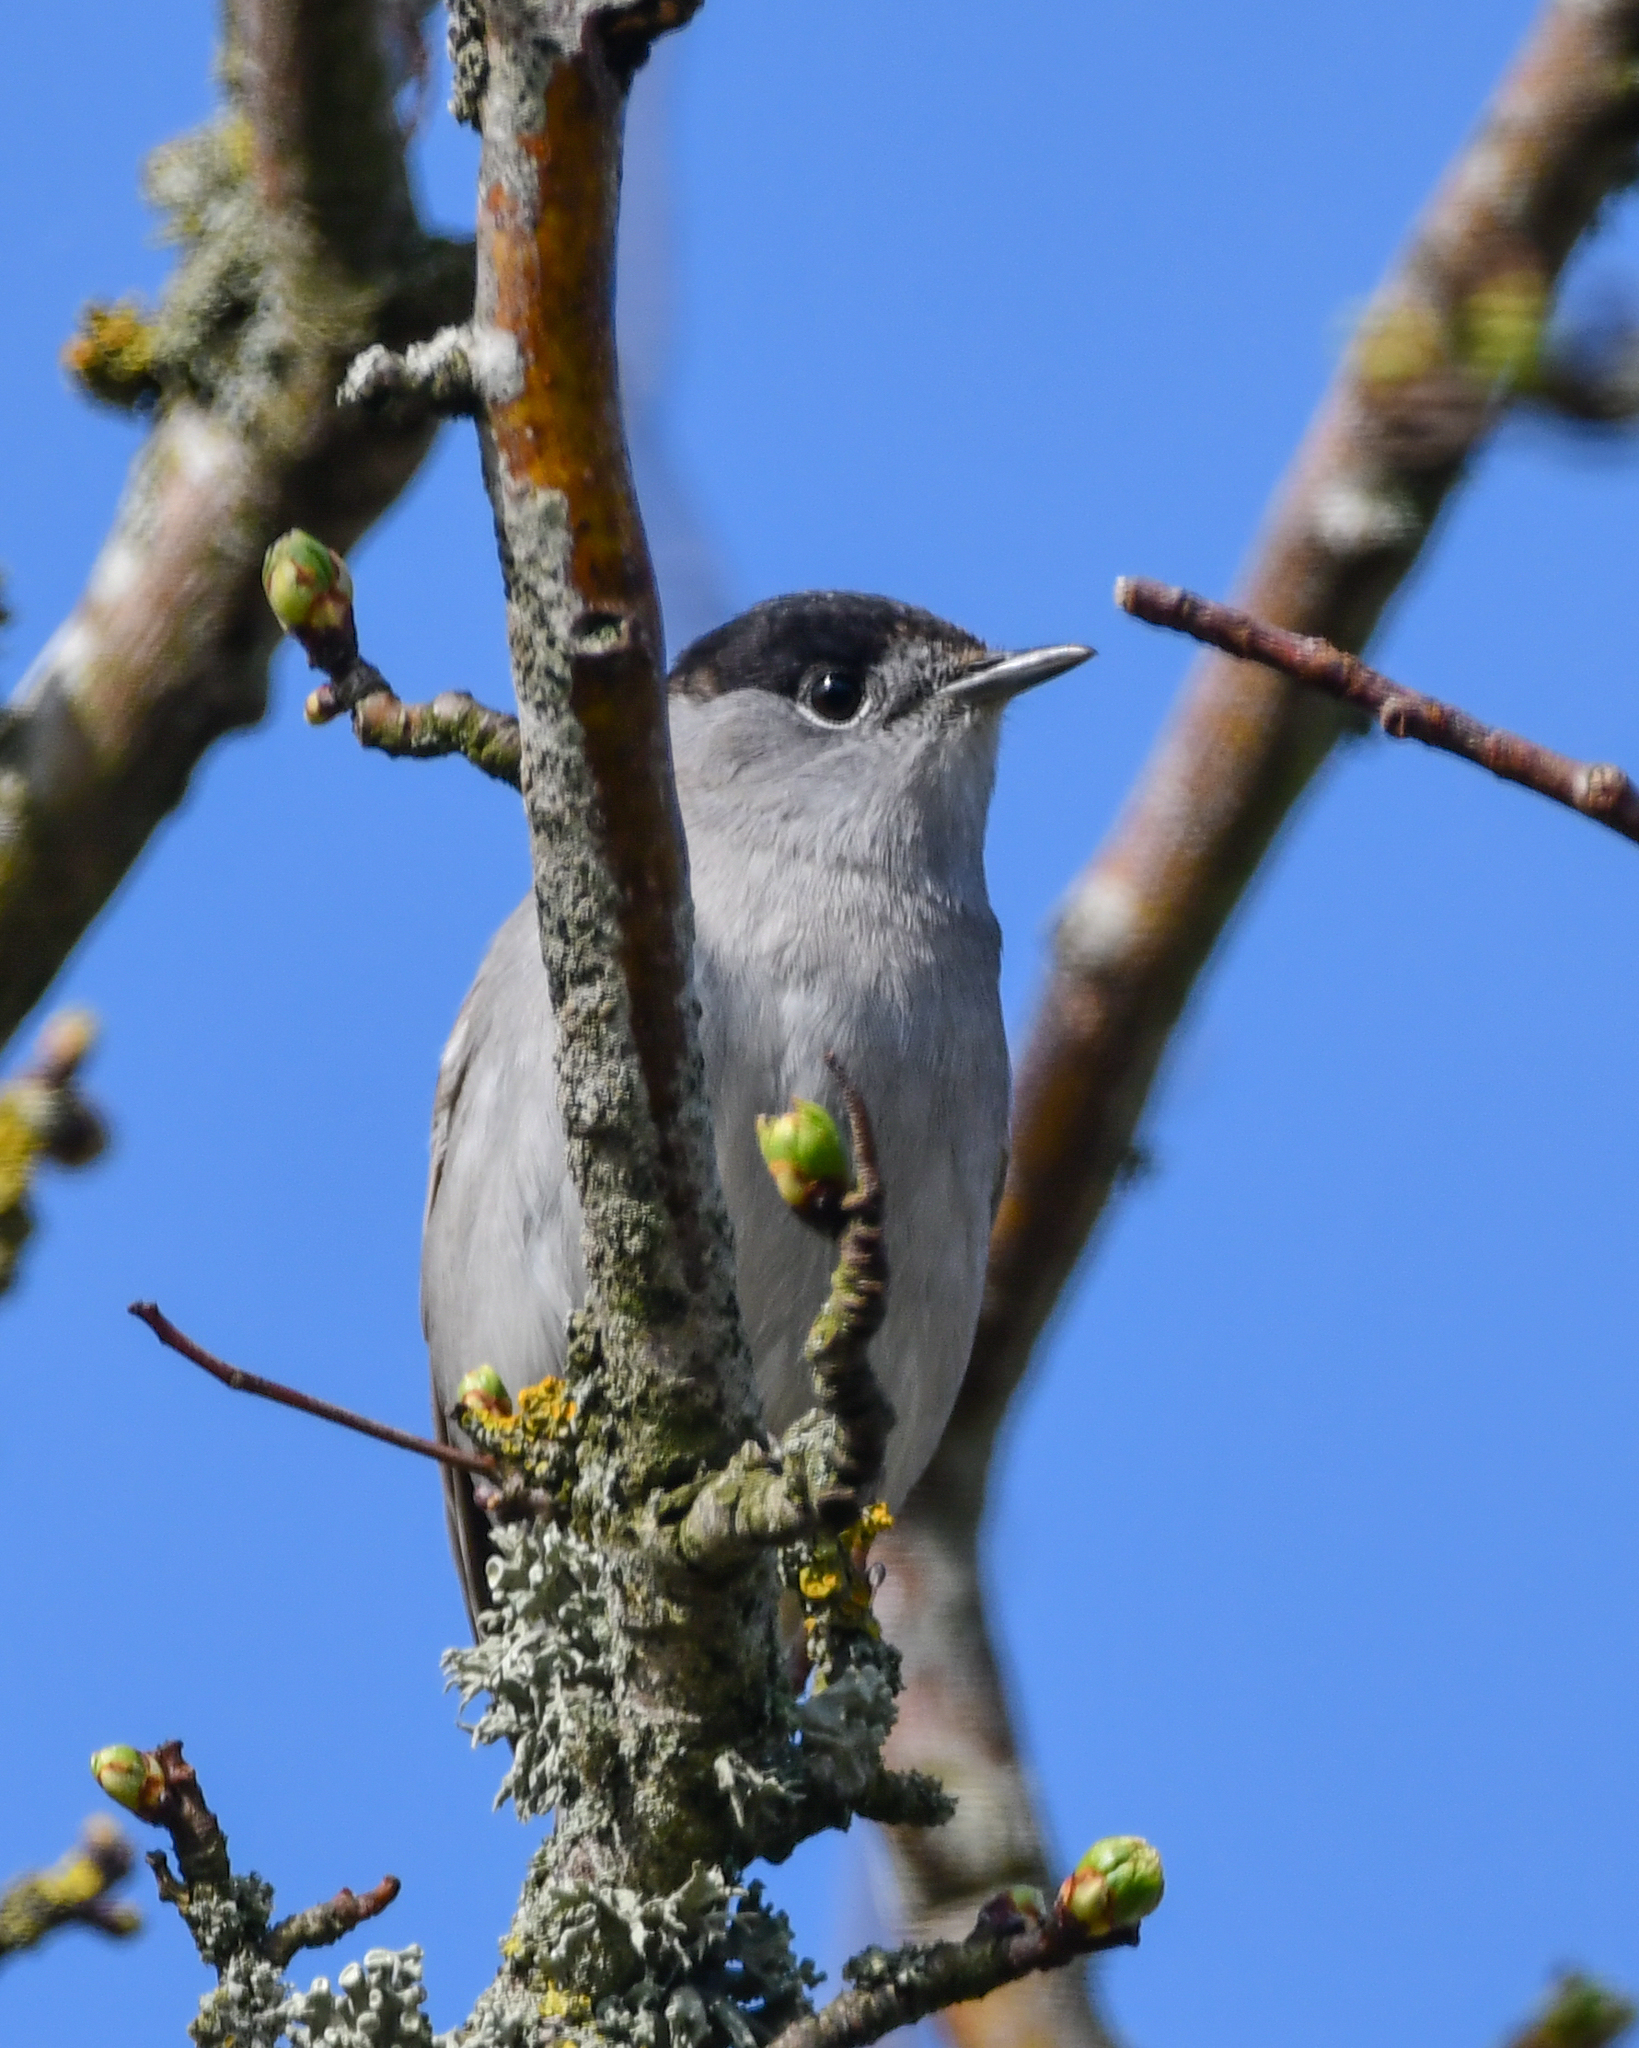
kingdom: Animalia
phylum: Chordata
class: Aves
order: Passeriformes
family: Sylviidae
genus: Sylvia
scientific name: Sylvia atricapilla
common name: Eurasian blackcap
